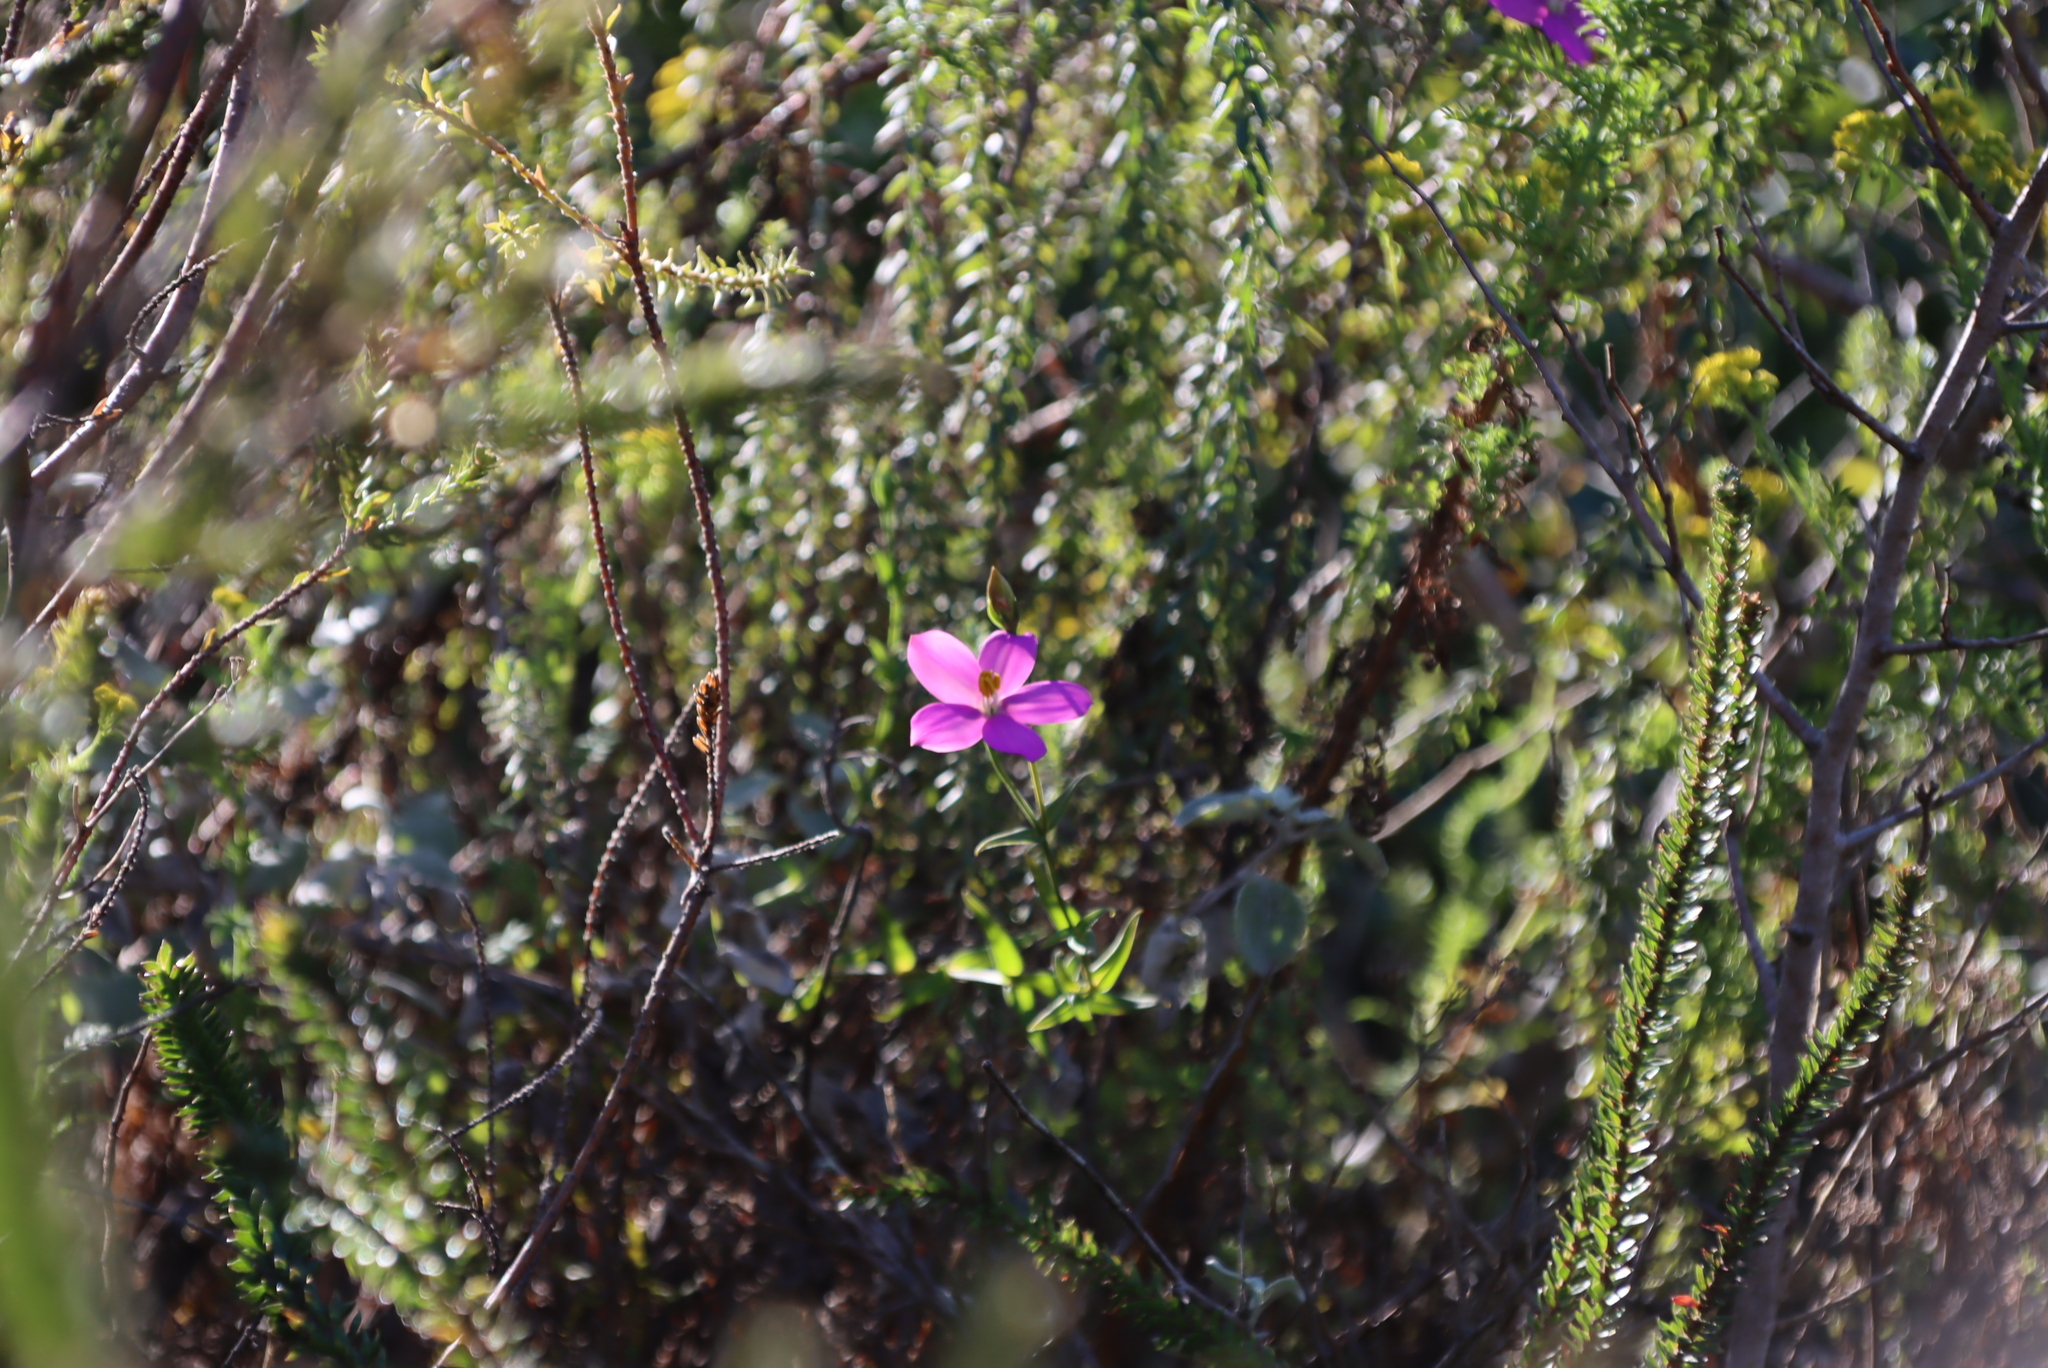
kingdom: Plantae
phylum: Tracheophyta
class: Magnoliopsida
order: Gentianales
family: Gentianaceae
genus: Chironia
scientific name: Chironia tetragona
